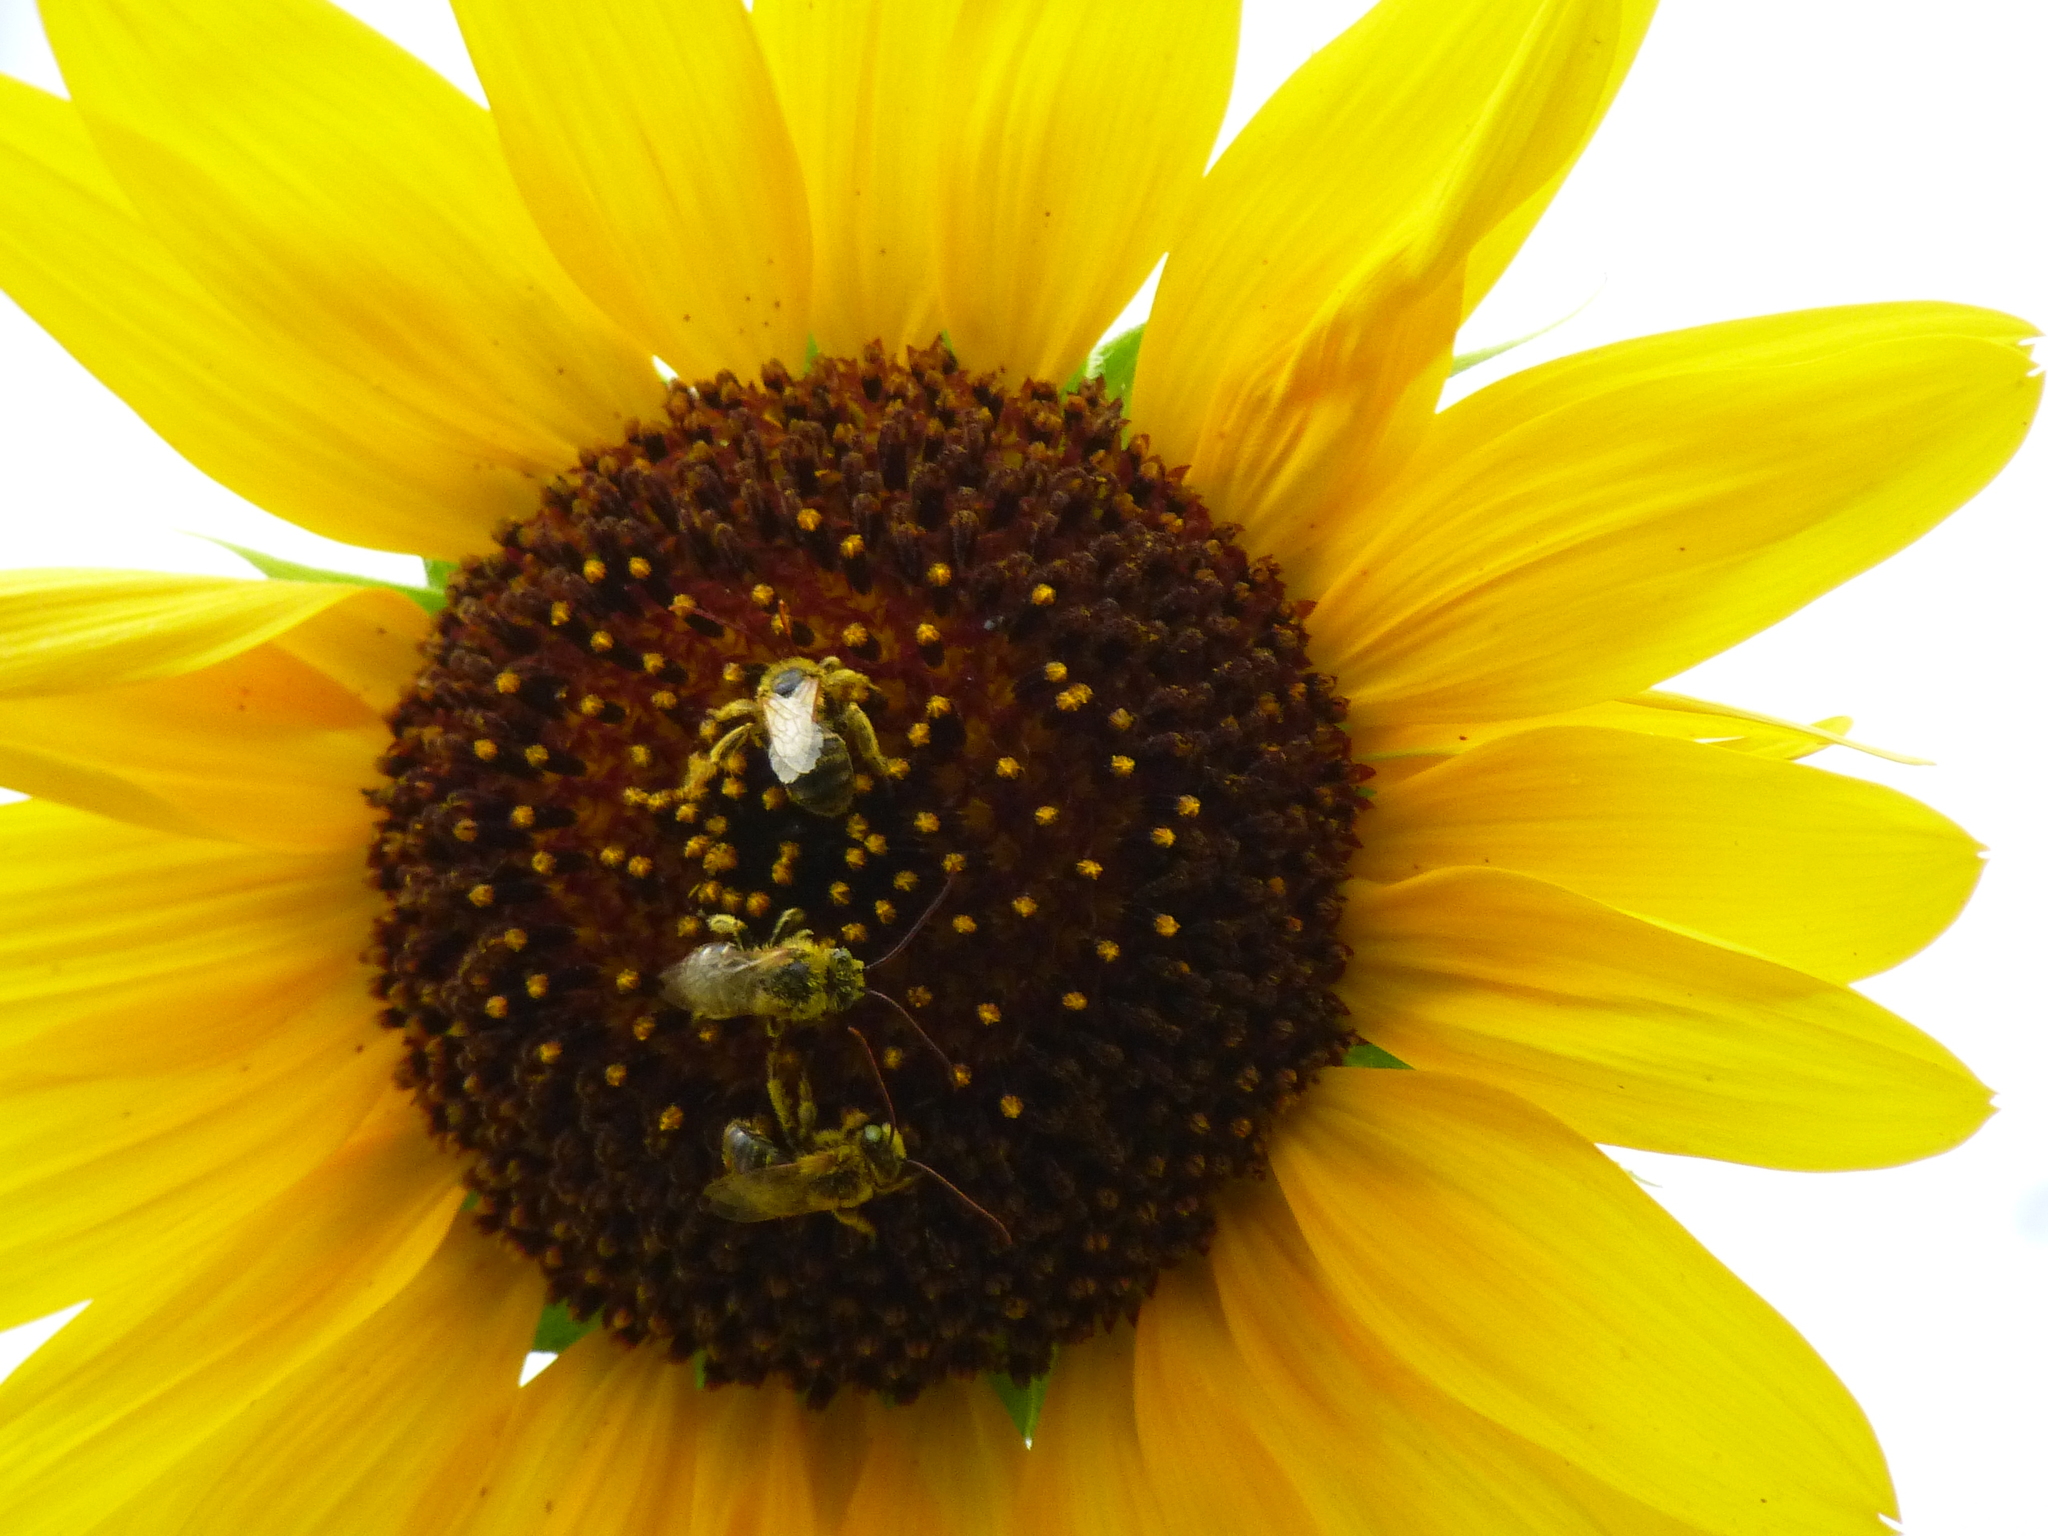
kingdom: Animalia
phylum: Arthropoda
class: Insecta
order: Hymenoptera
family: Apidae
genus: Melissodes
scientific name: Melissodes trinodis
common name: Dark-veined longhorn
